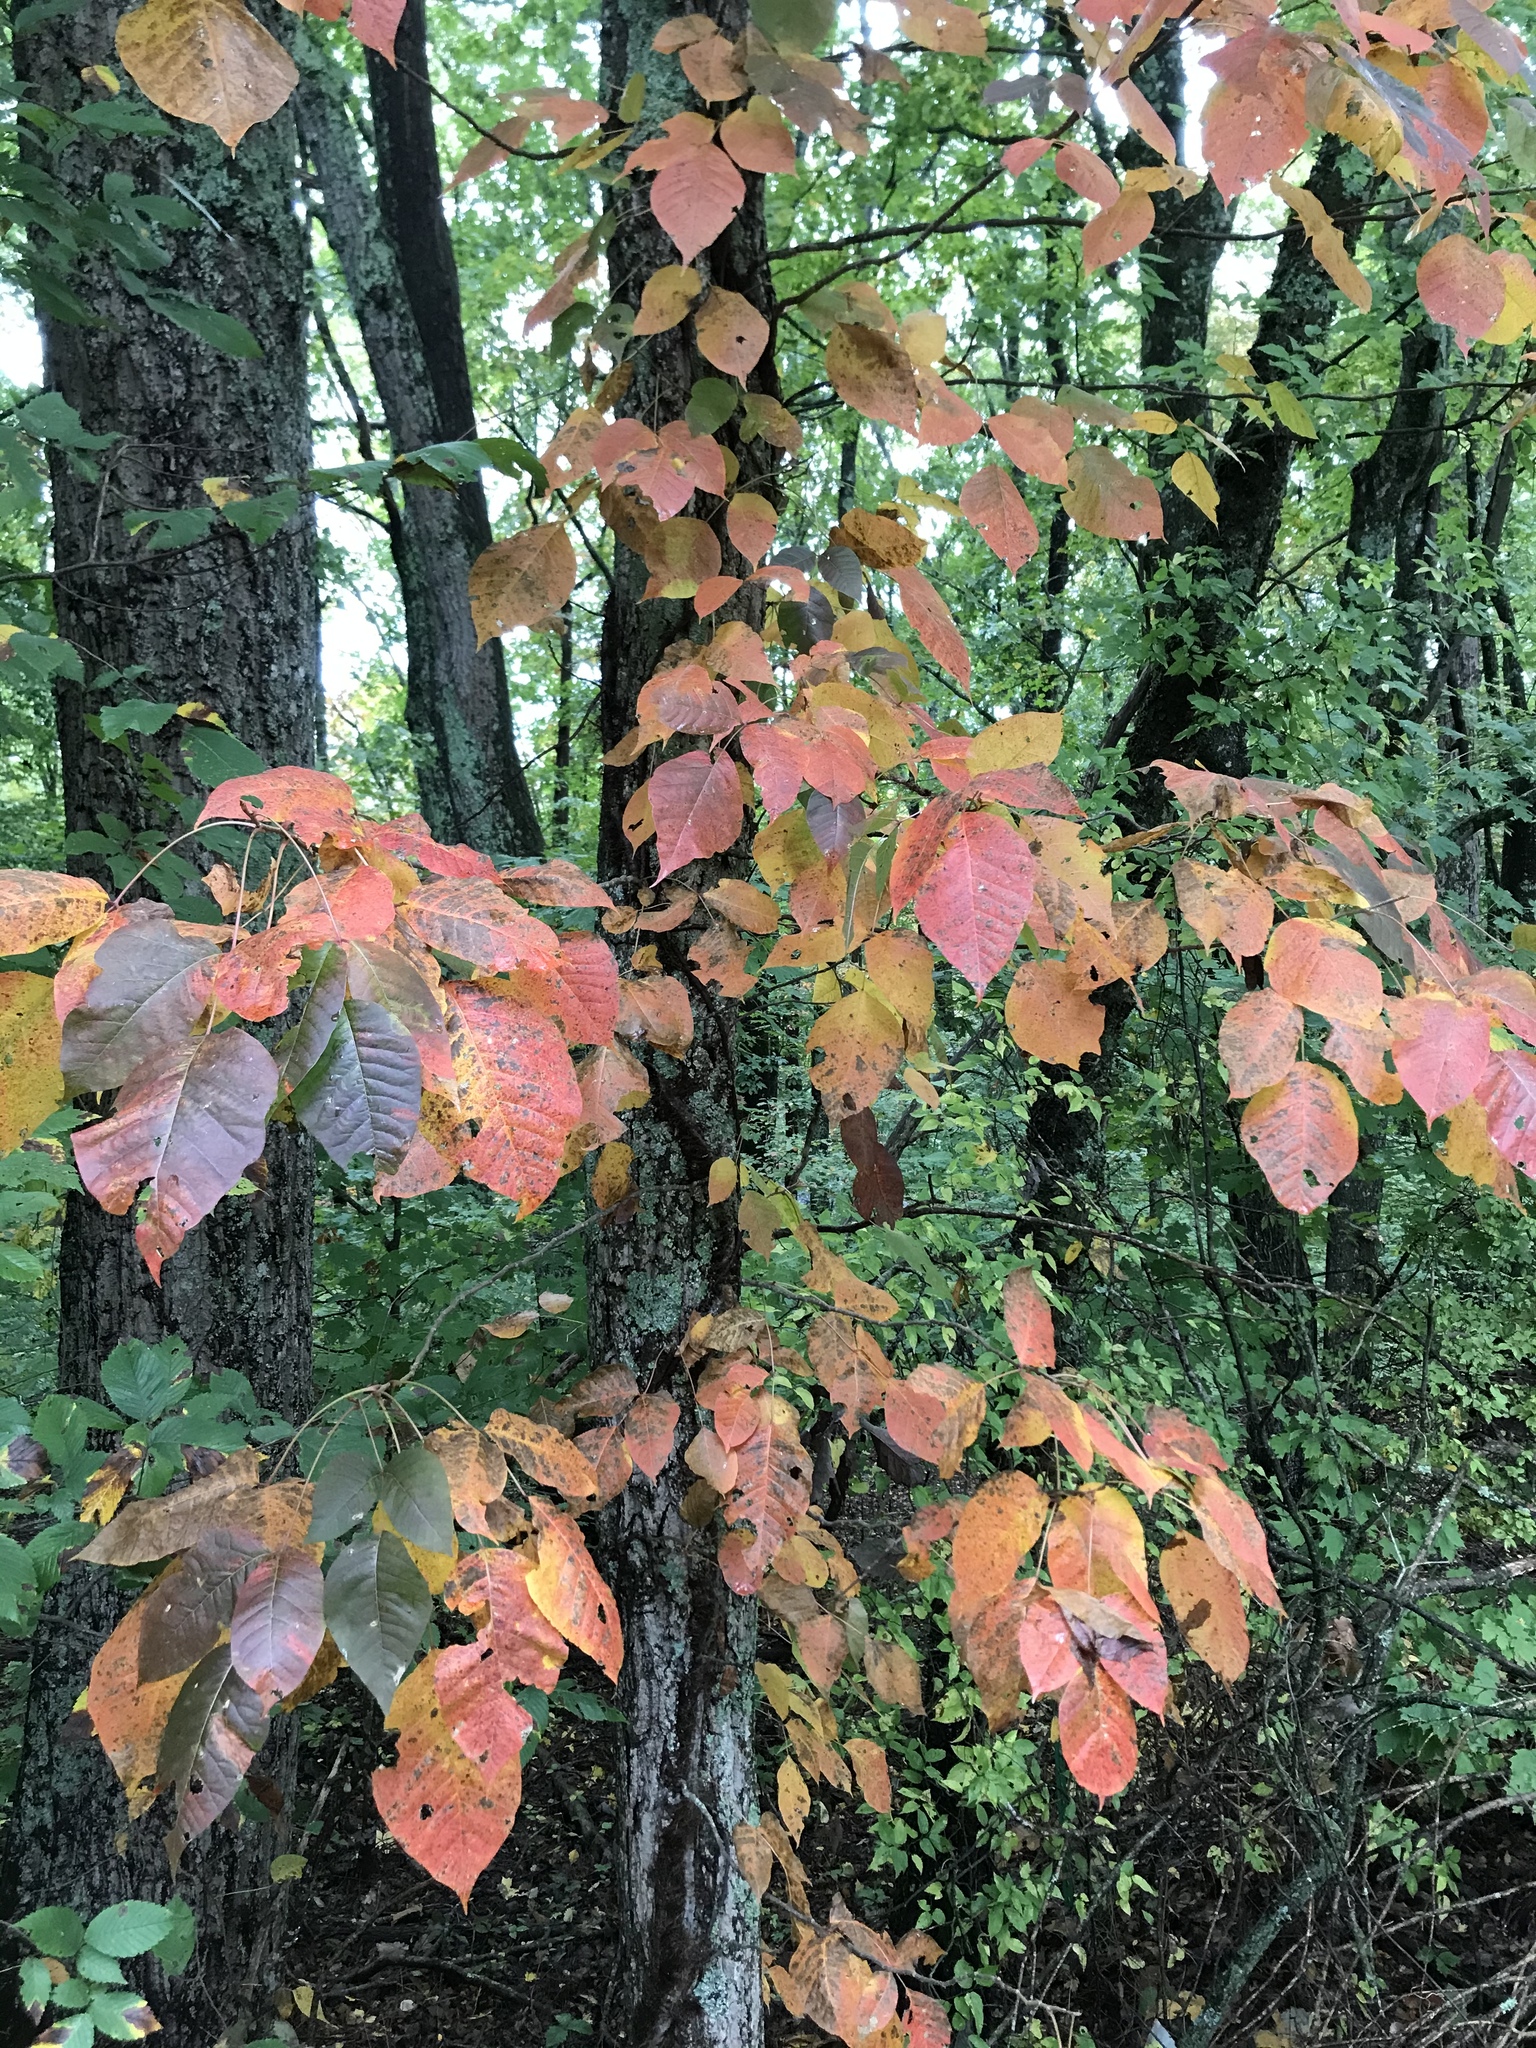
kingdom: Plantae
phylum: Tracheophyta
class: Magnoliopsida
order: Sapindales
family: Anacardiaceae
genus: Toxicodendron
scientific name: Toxicodendron radicans
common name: Poison ivy
